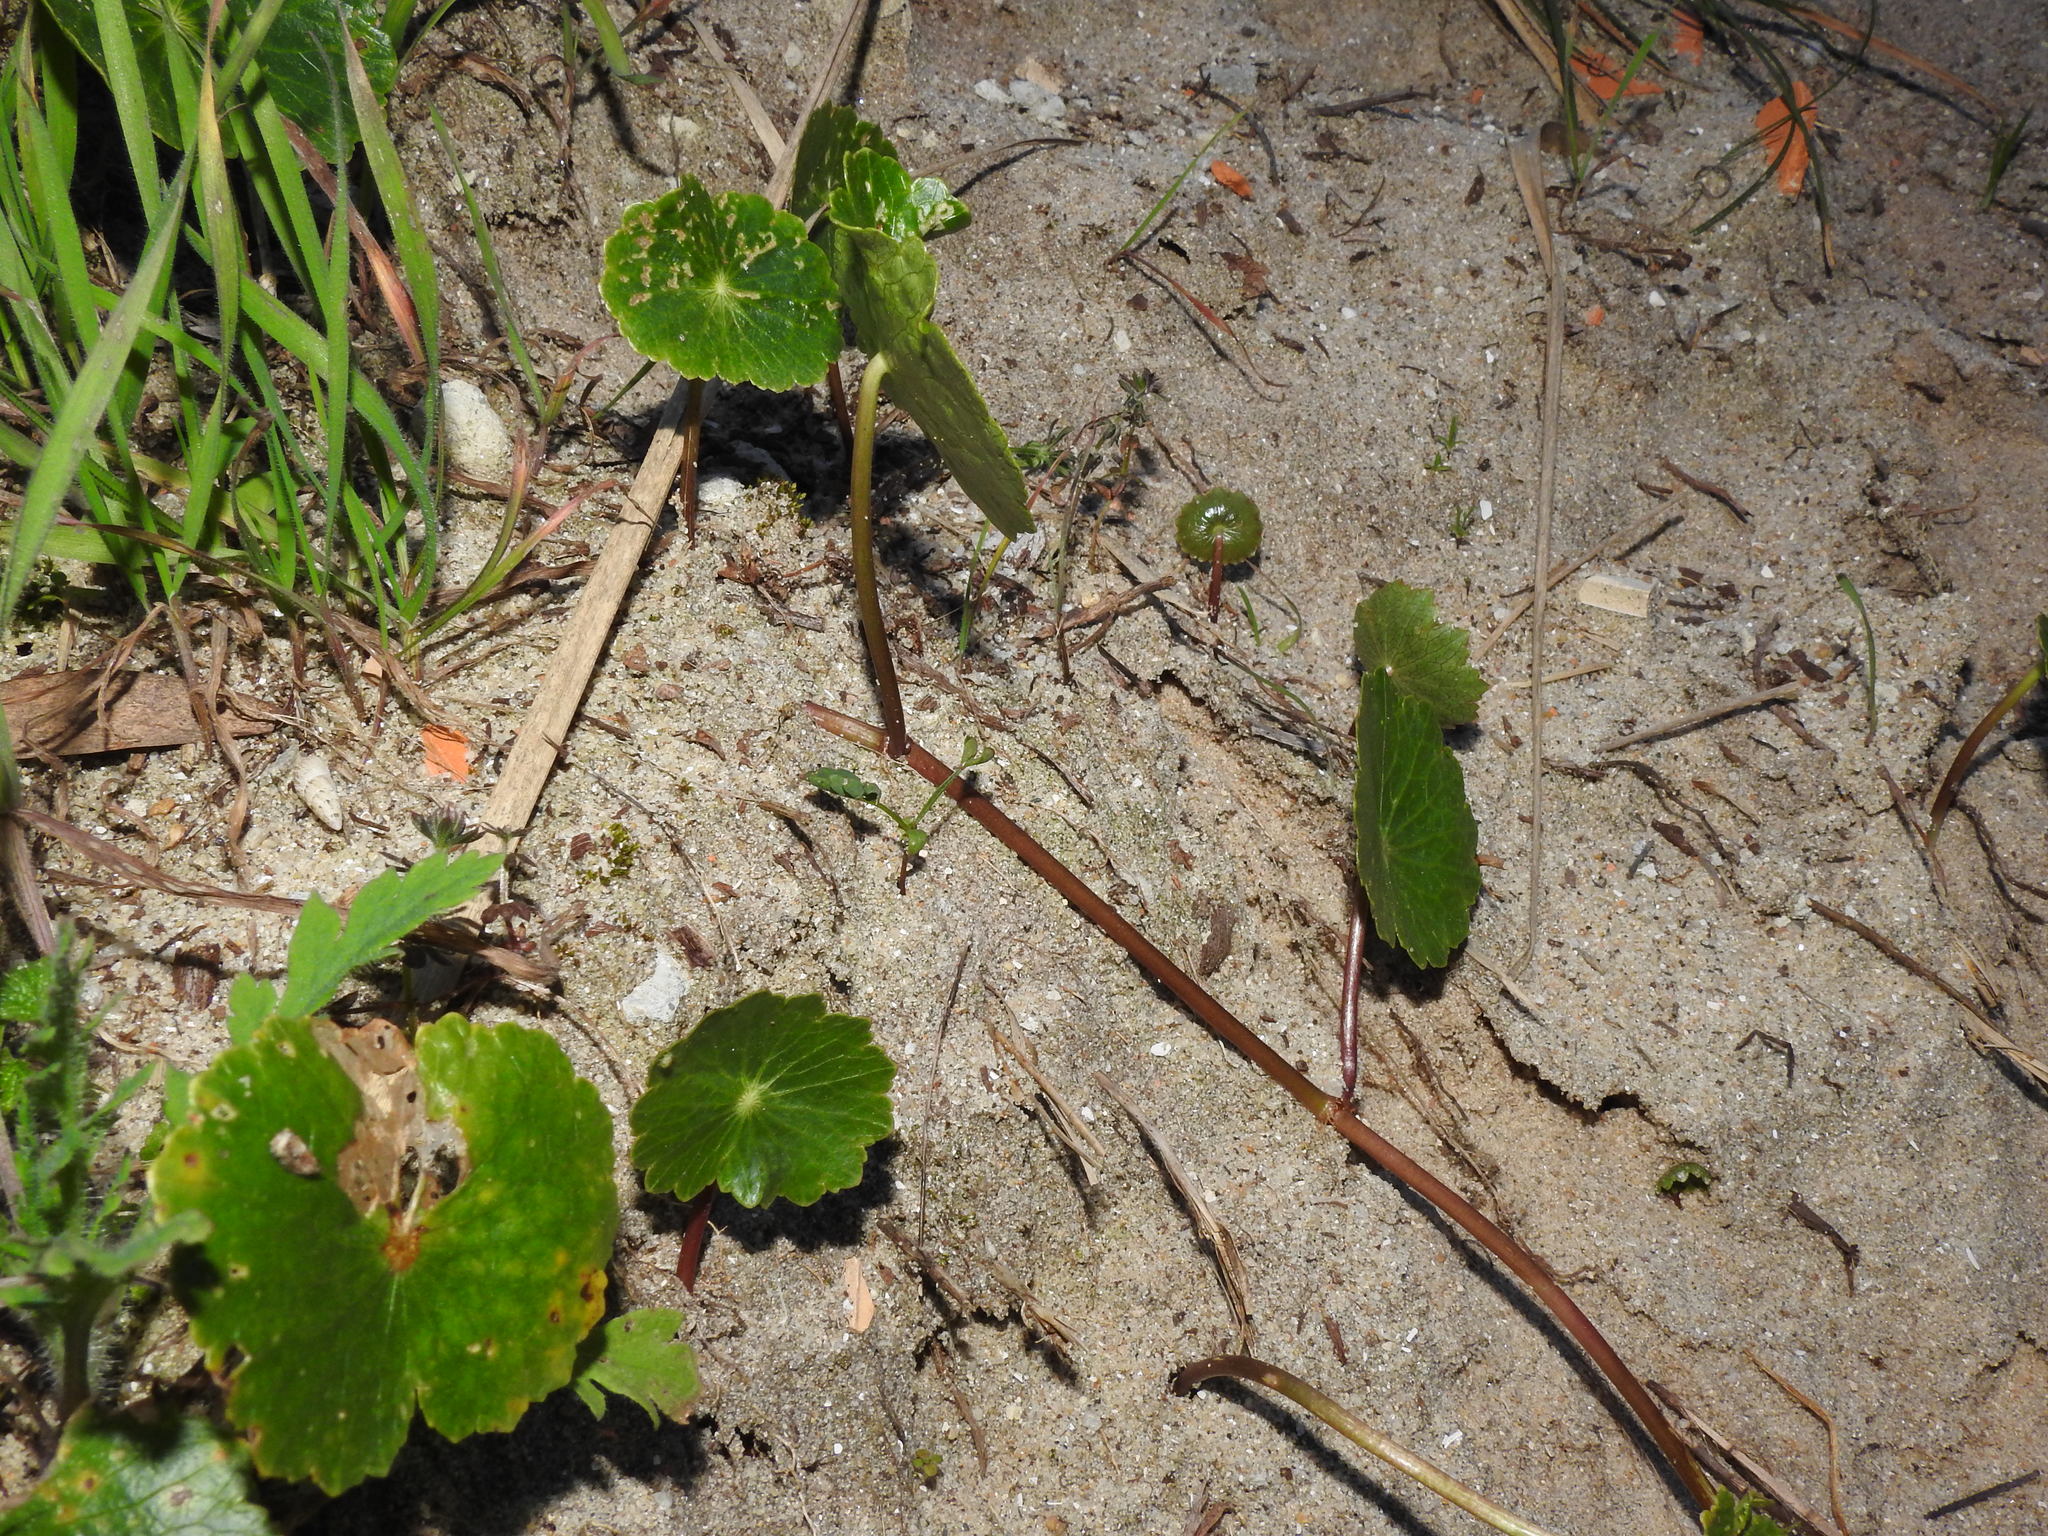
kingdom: Plantae
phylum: Tracheophyta
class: Magnoliopsida
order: Apiales
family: Araliaceae
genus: Hydrocotyle
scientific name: Hydrocotyle bonariensis
